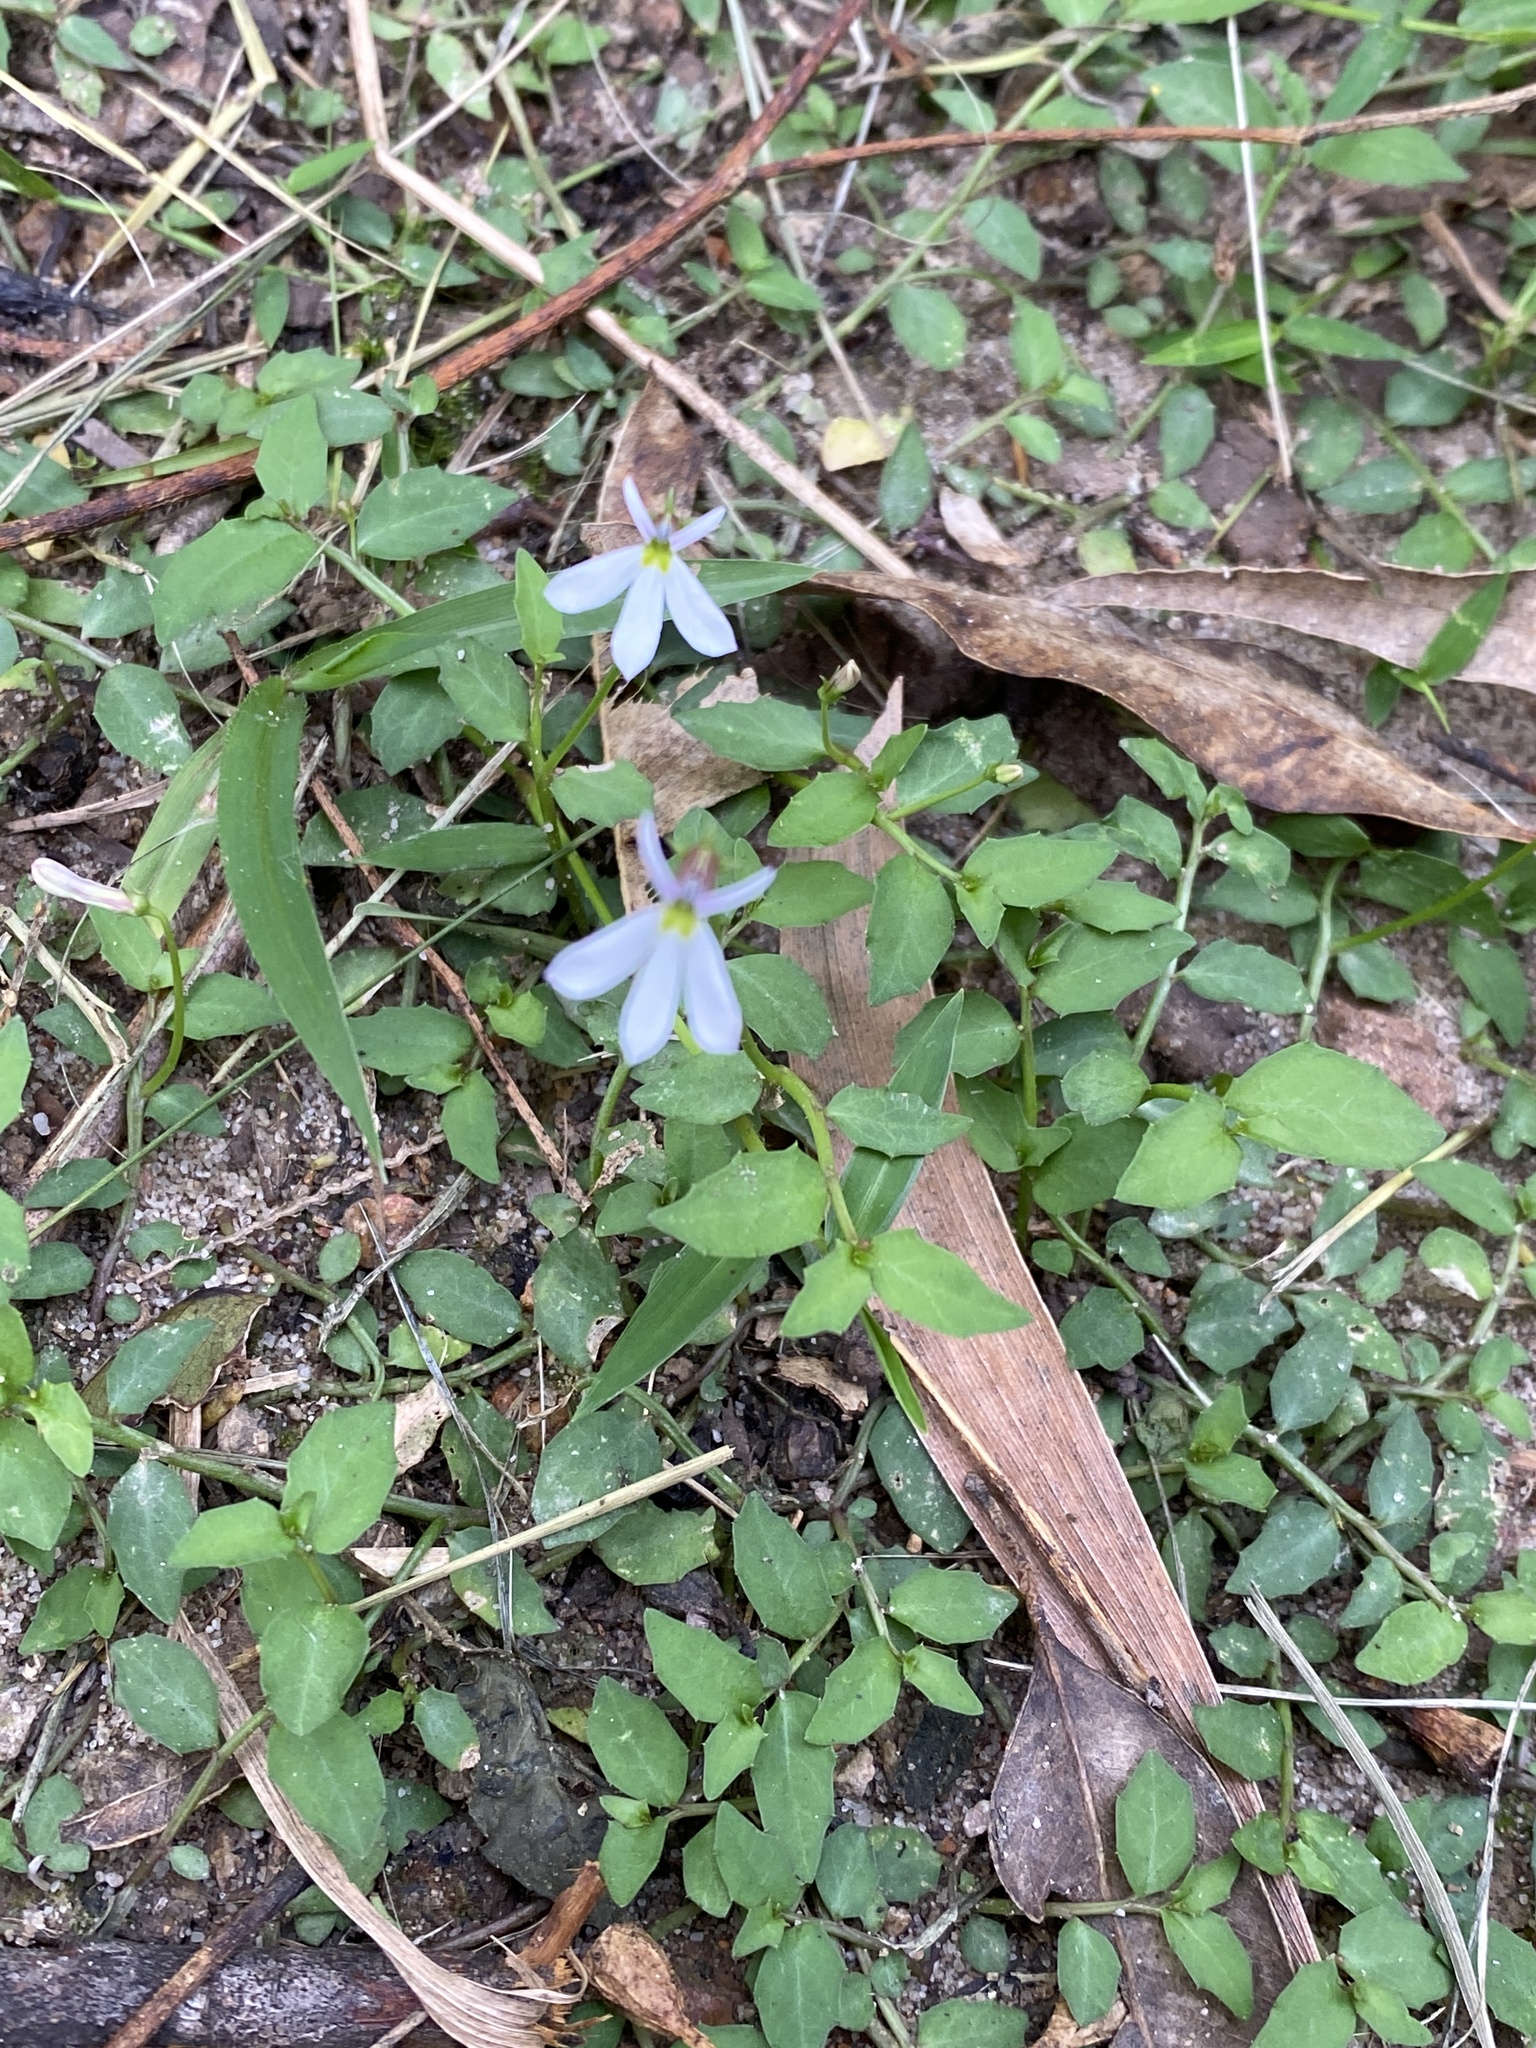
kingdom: Plantae
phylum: Tracheophyta
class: Magnoliopsida
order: Asterales
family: Campanulaceae
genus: Lobelia
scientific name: Lobelia purpurascens
